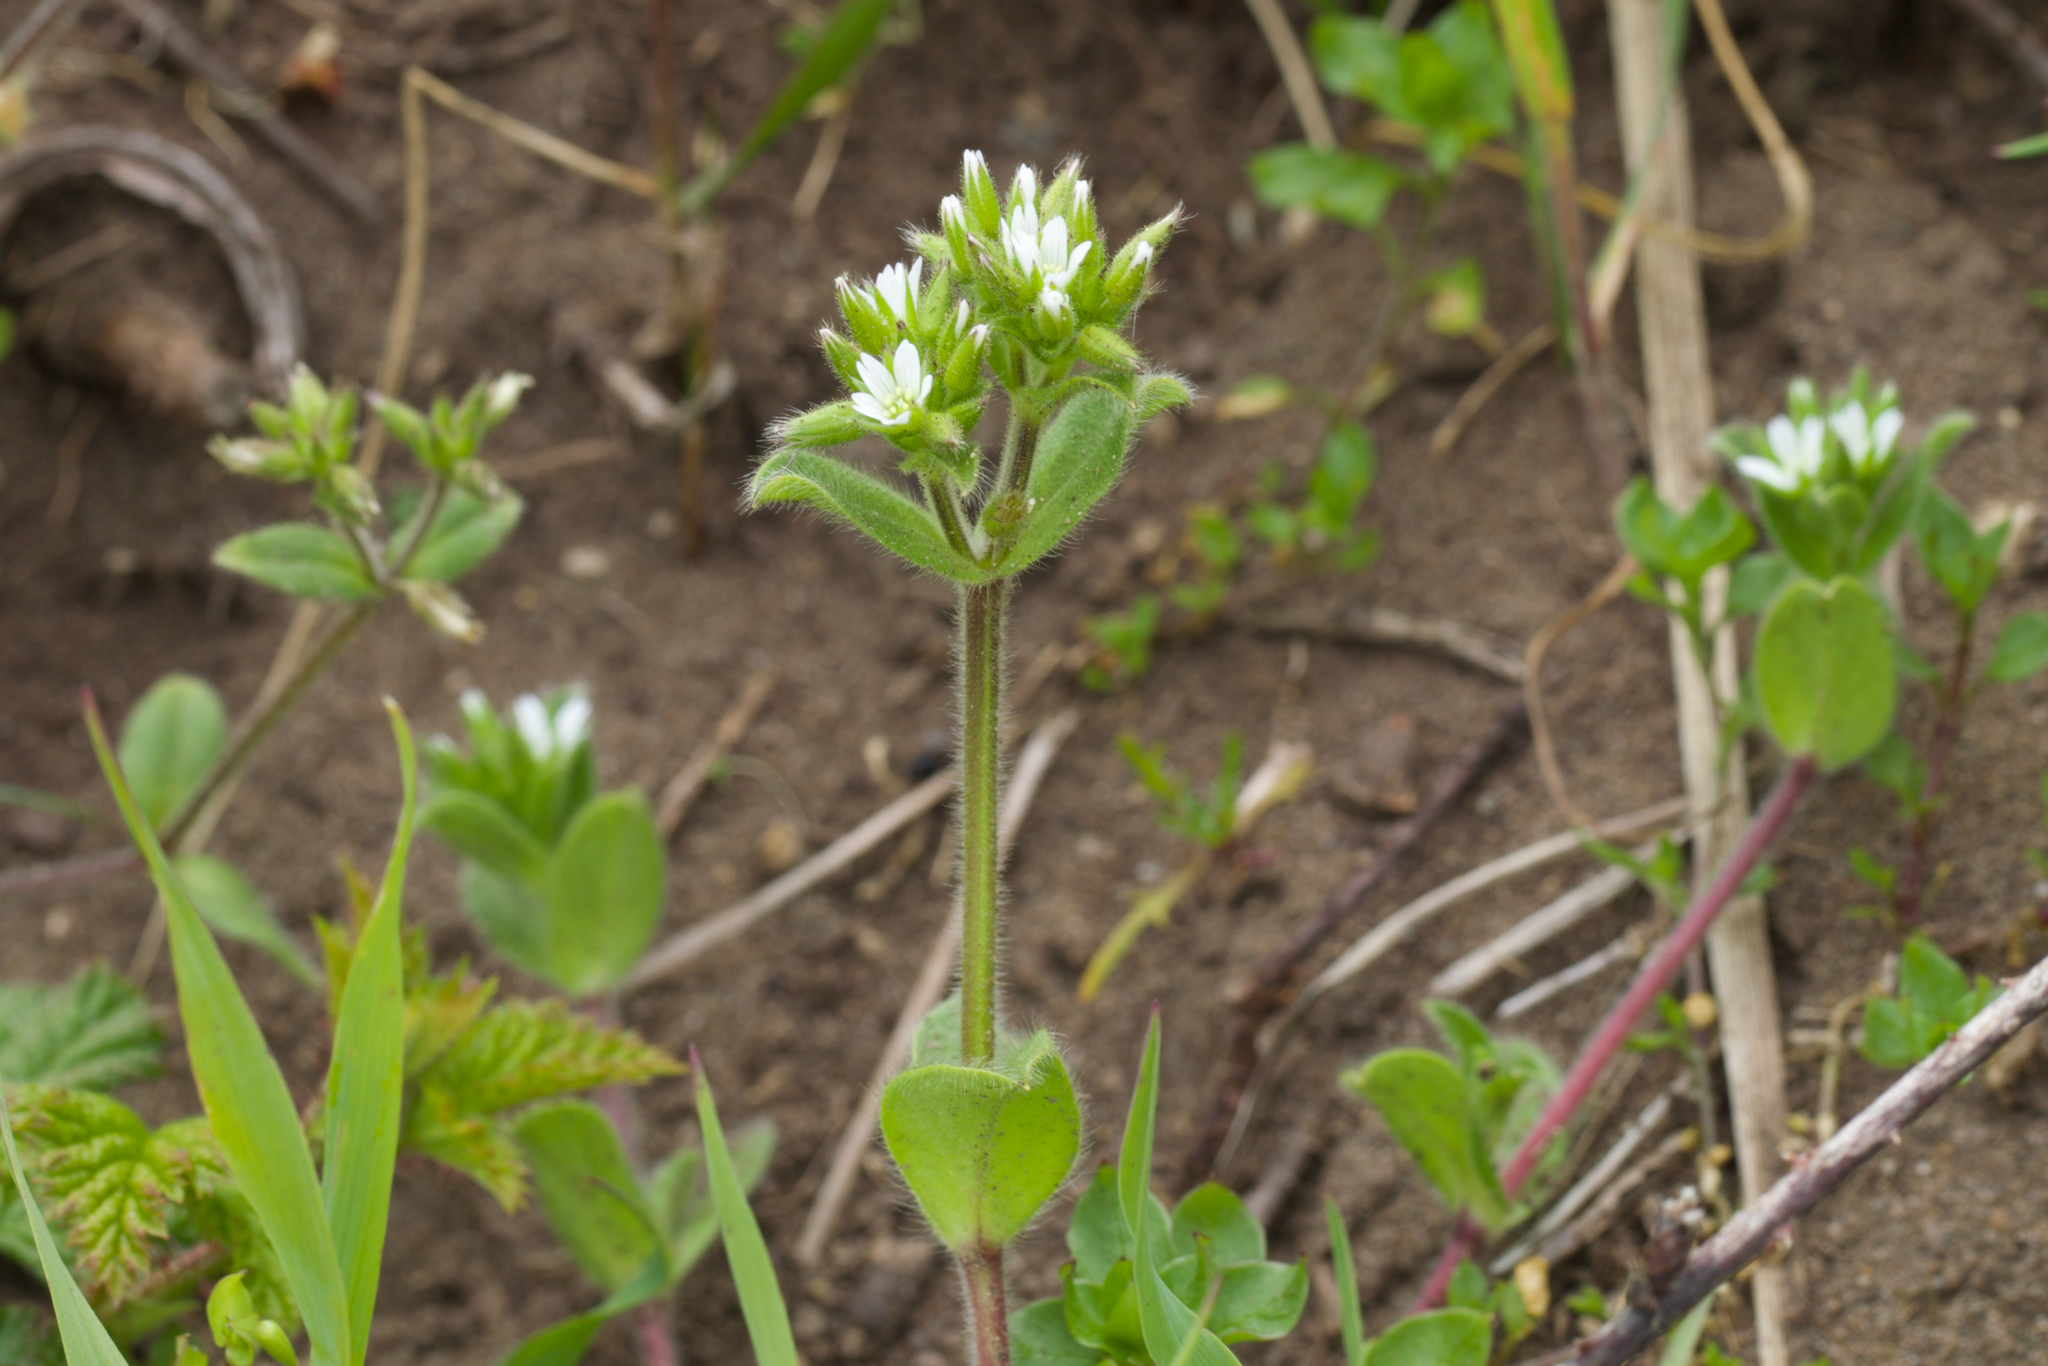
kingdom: Plantae
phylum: Tracheophyta
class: Magnoliopsida
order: Caryophyllales
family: Caryophyllaceae
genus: Cerastium
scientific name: Cerastium glomeratum
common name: Sticky chickweed
